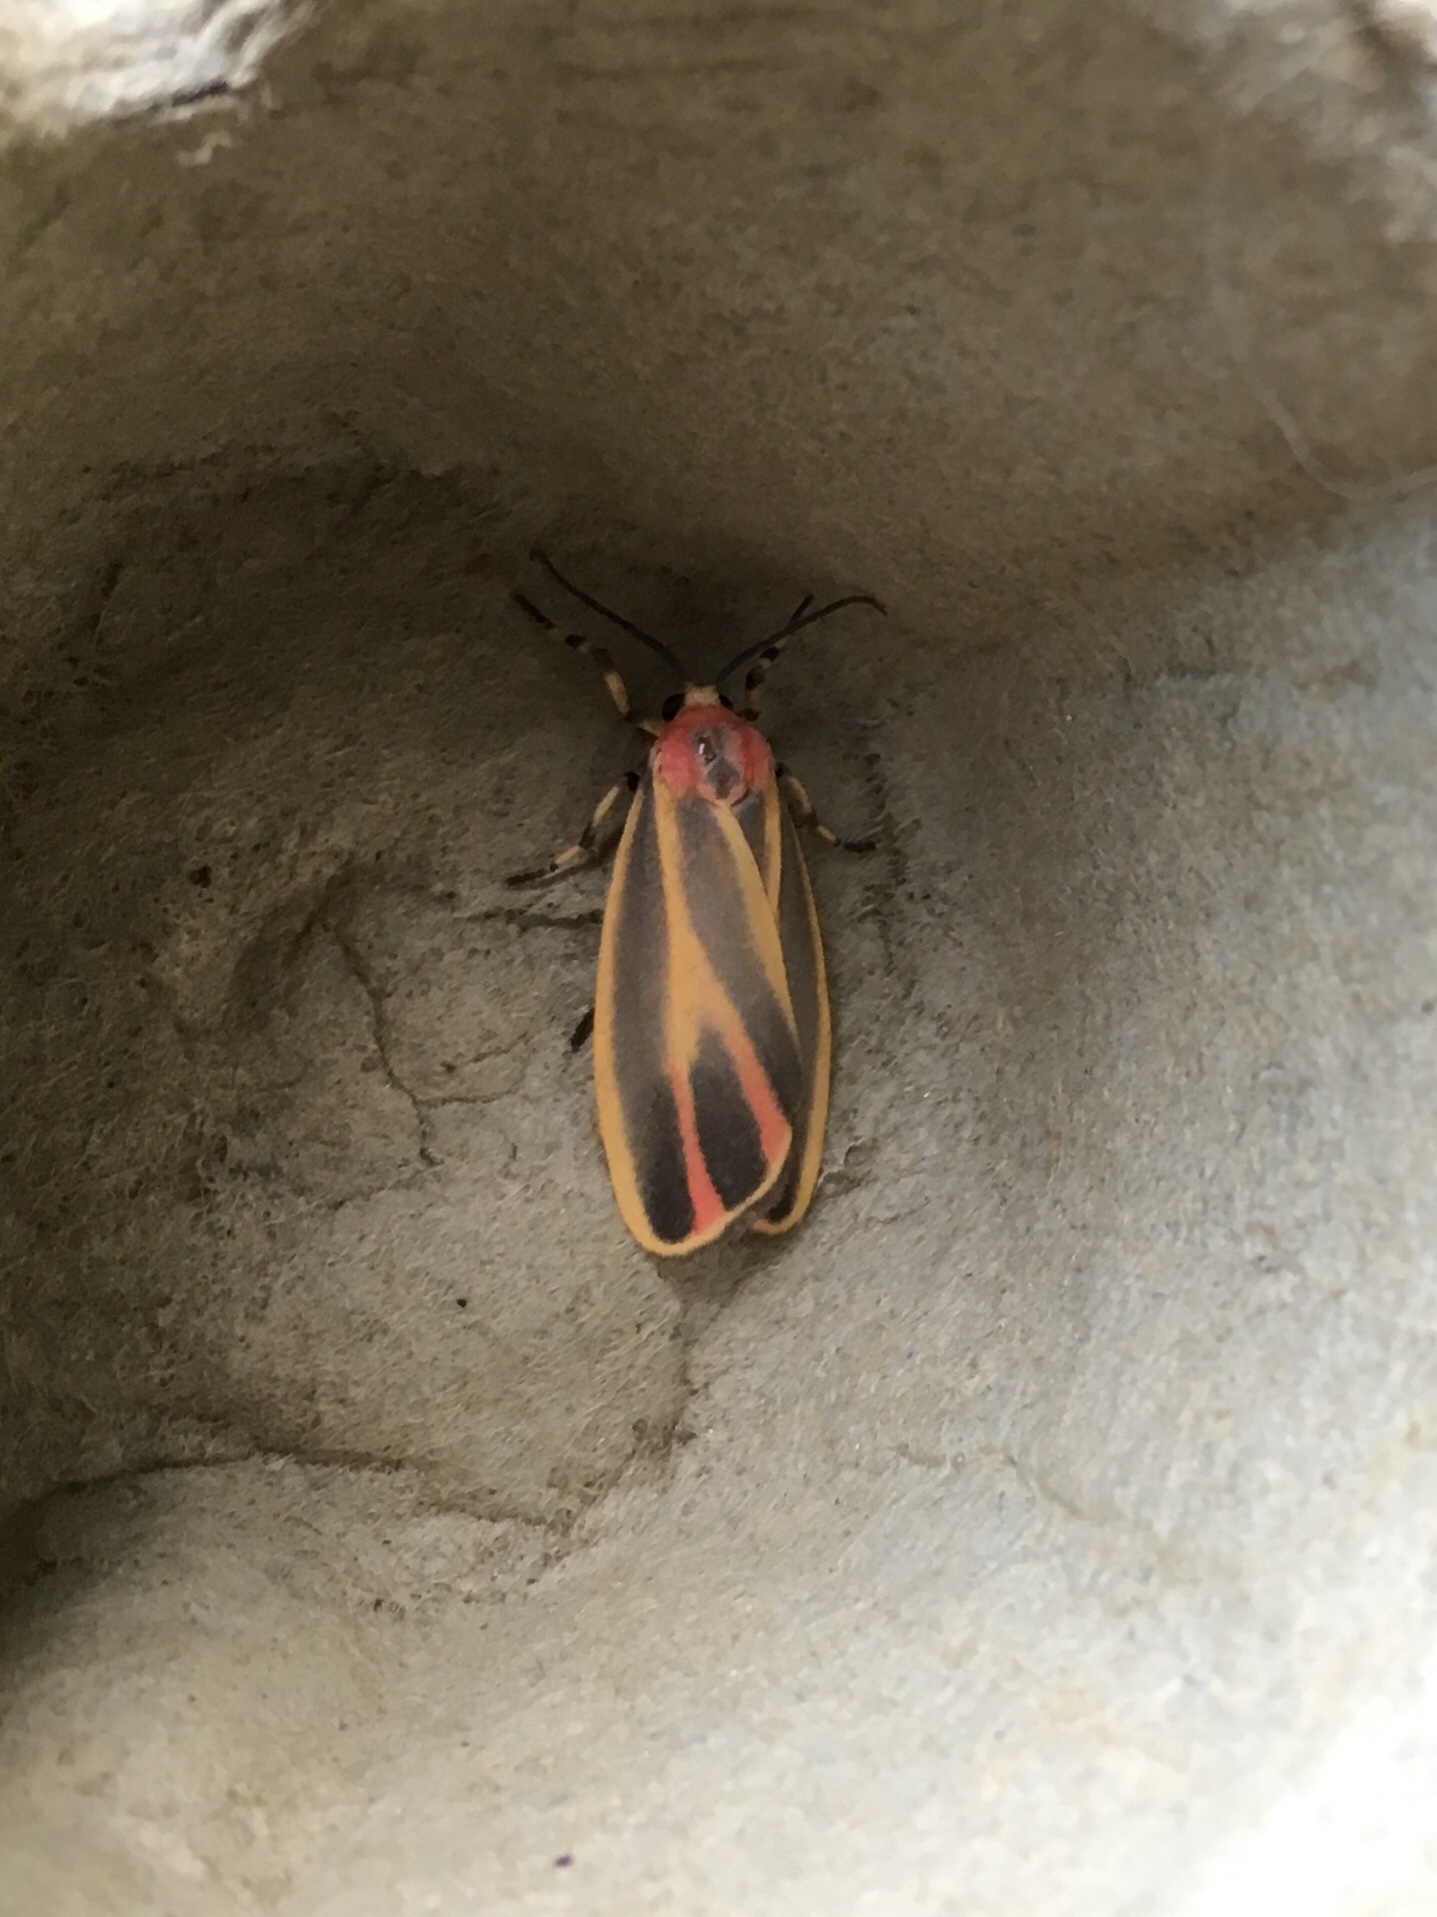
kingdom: Animalia
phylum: Arthropoda
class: Insecta
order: Lepidoptera
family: Erebidae
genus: Hypoprepia
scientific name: Hypoprepia fucosa
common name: Painted lichen moth
